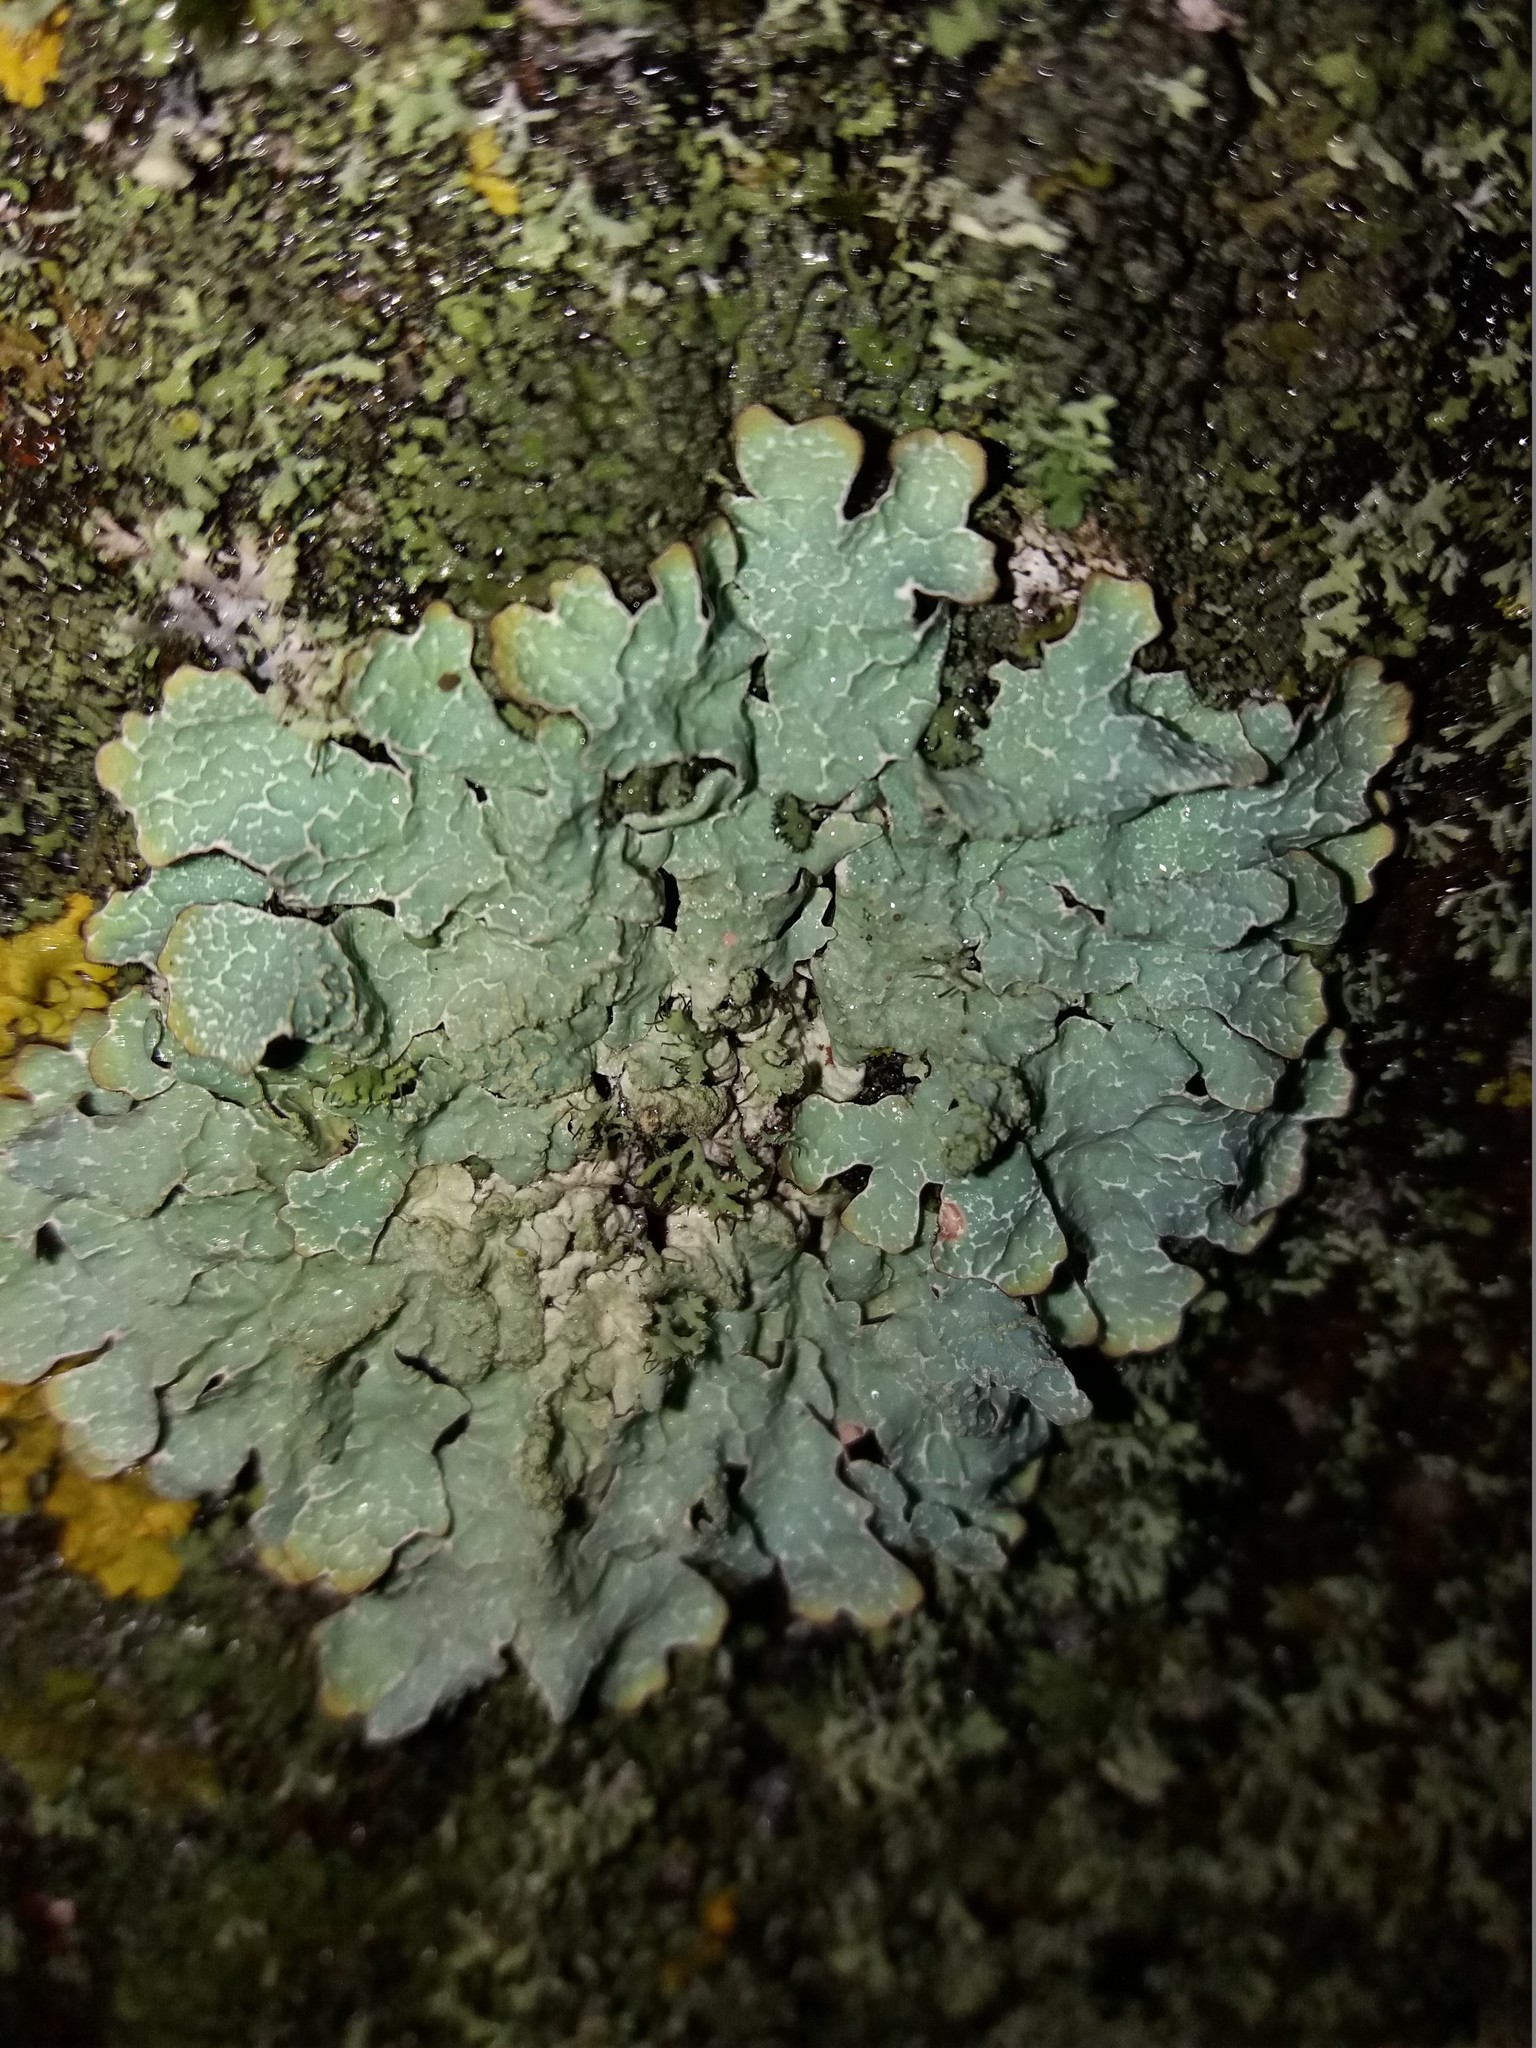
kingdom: Fungi
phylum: Ascomycota
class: Lecanoromycetes
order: Lecanorales
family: Parmeliaceae
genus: Parmelia
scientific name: Parmelia sulcata
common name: Netted shield lichen
